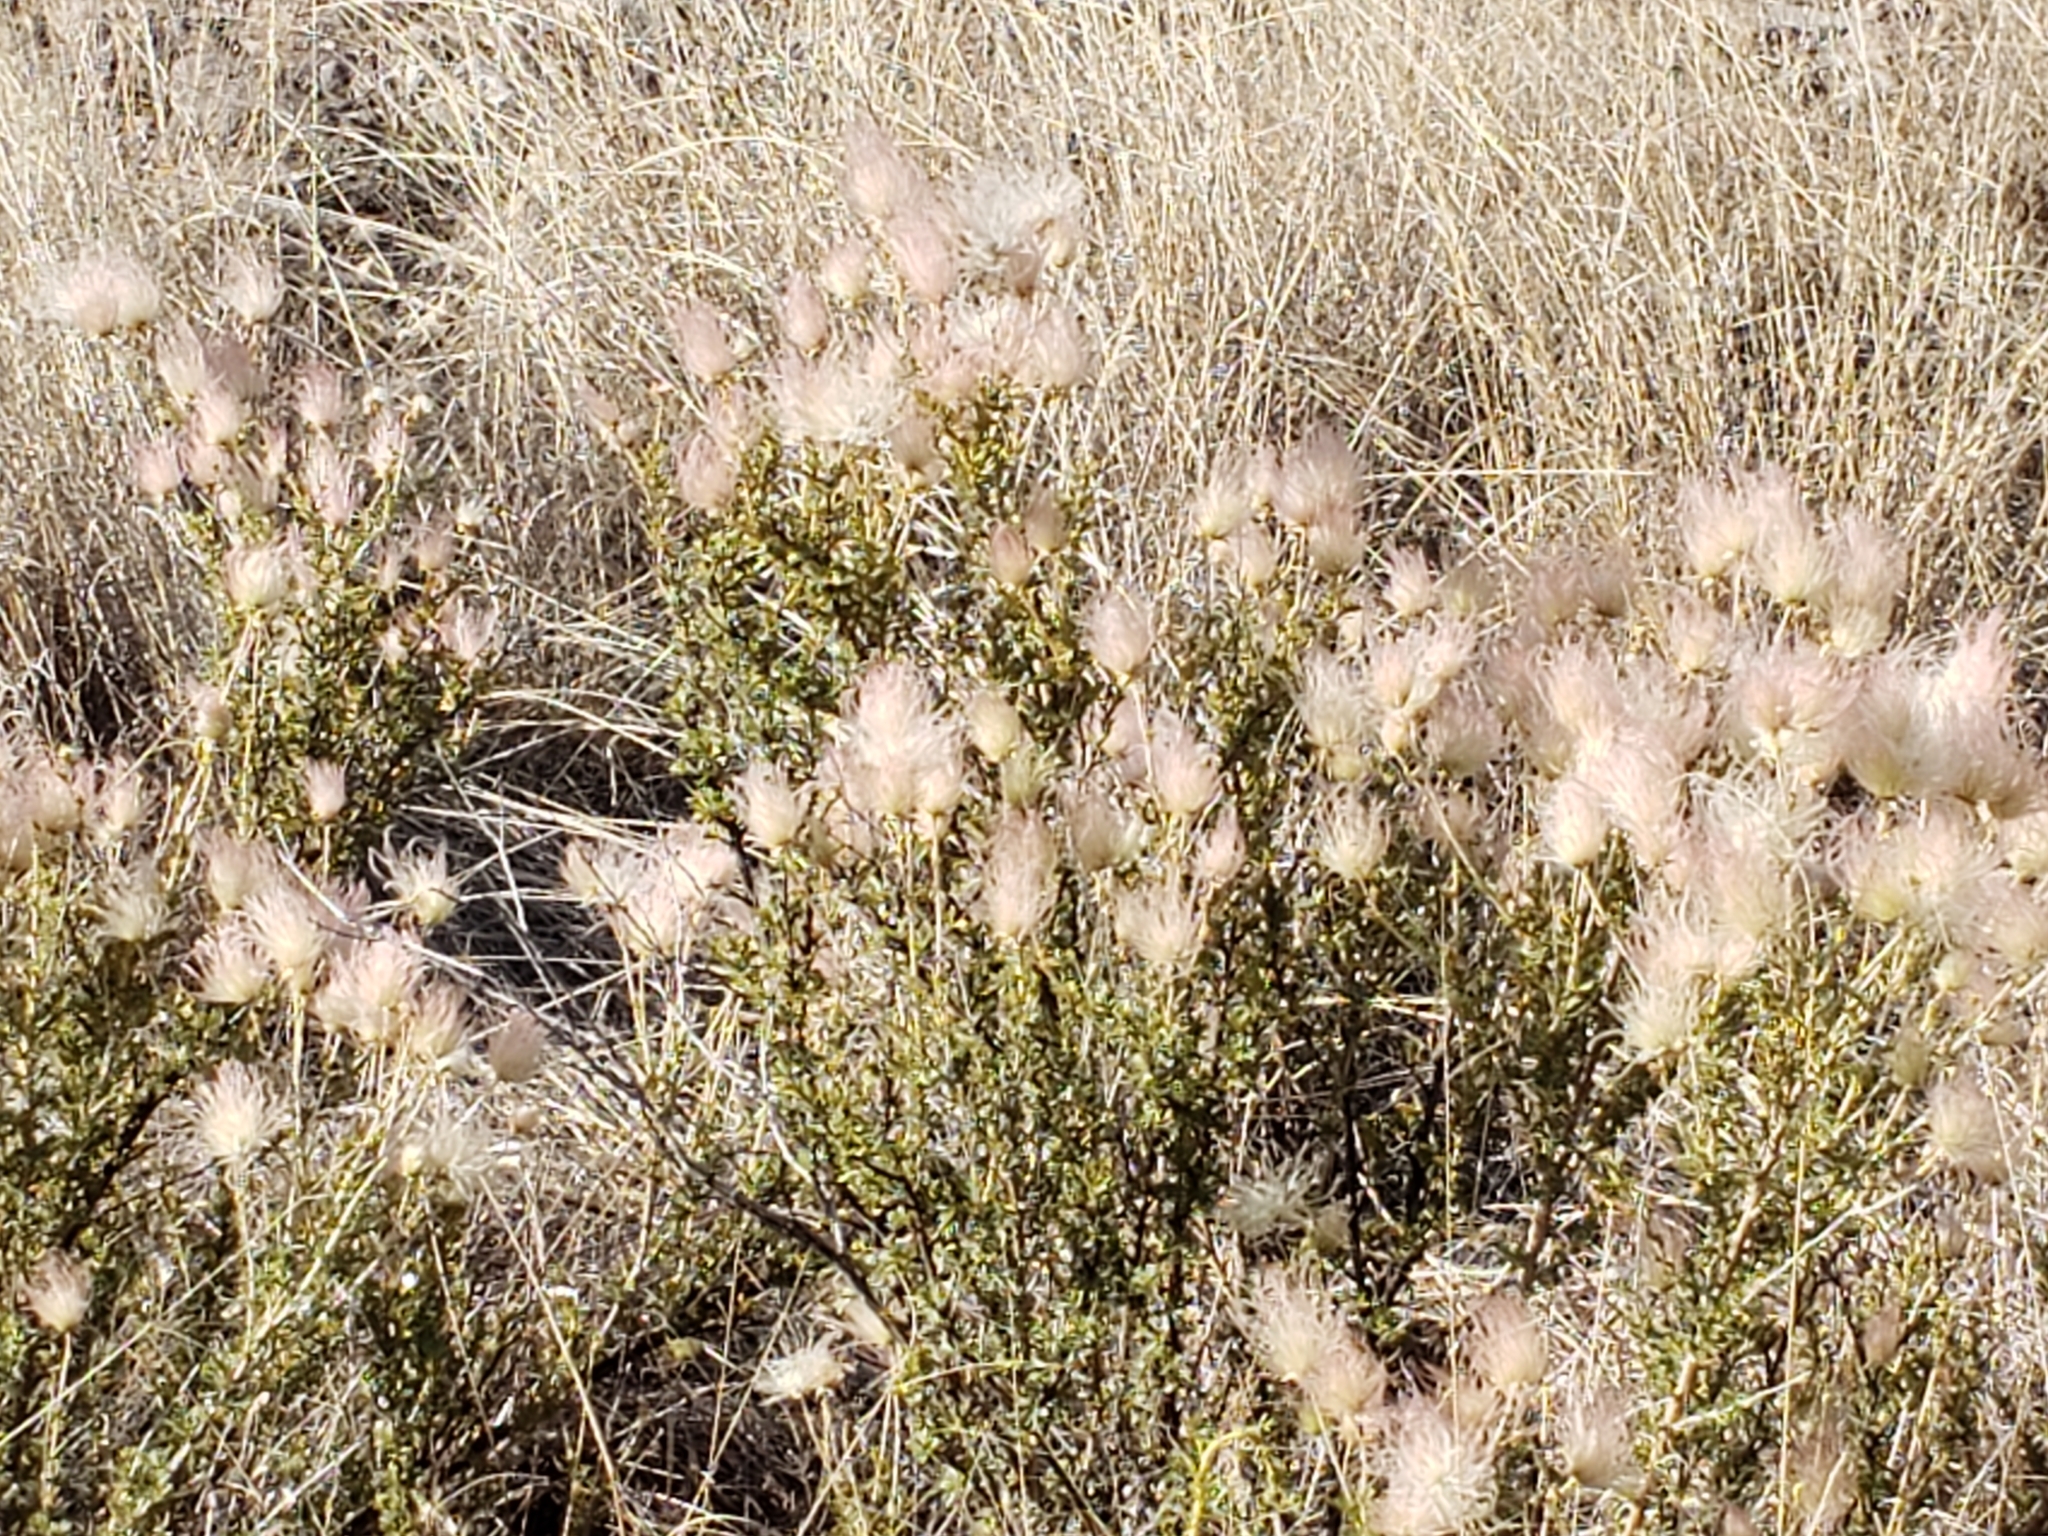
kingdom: Plantae
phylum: Tracheophyta
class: Magnoliopsida
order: Rosales
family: Rosaceae
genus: Fallugia
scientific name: Fallugia paradoxa
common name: Apache-plume
